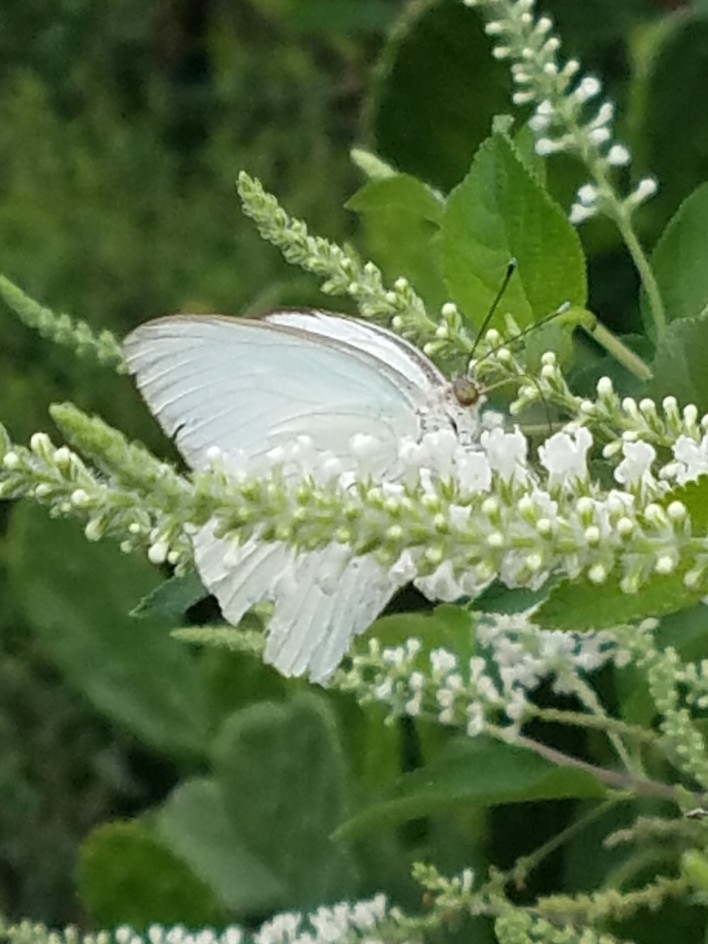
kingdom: Animalia
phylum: Arthropoda
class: Insecta
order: Lepidoptera
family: Pieridae
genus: Ascia
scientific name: Ascia monuste
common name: Great southern white
